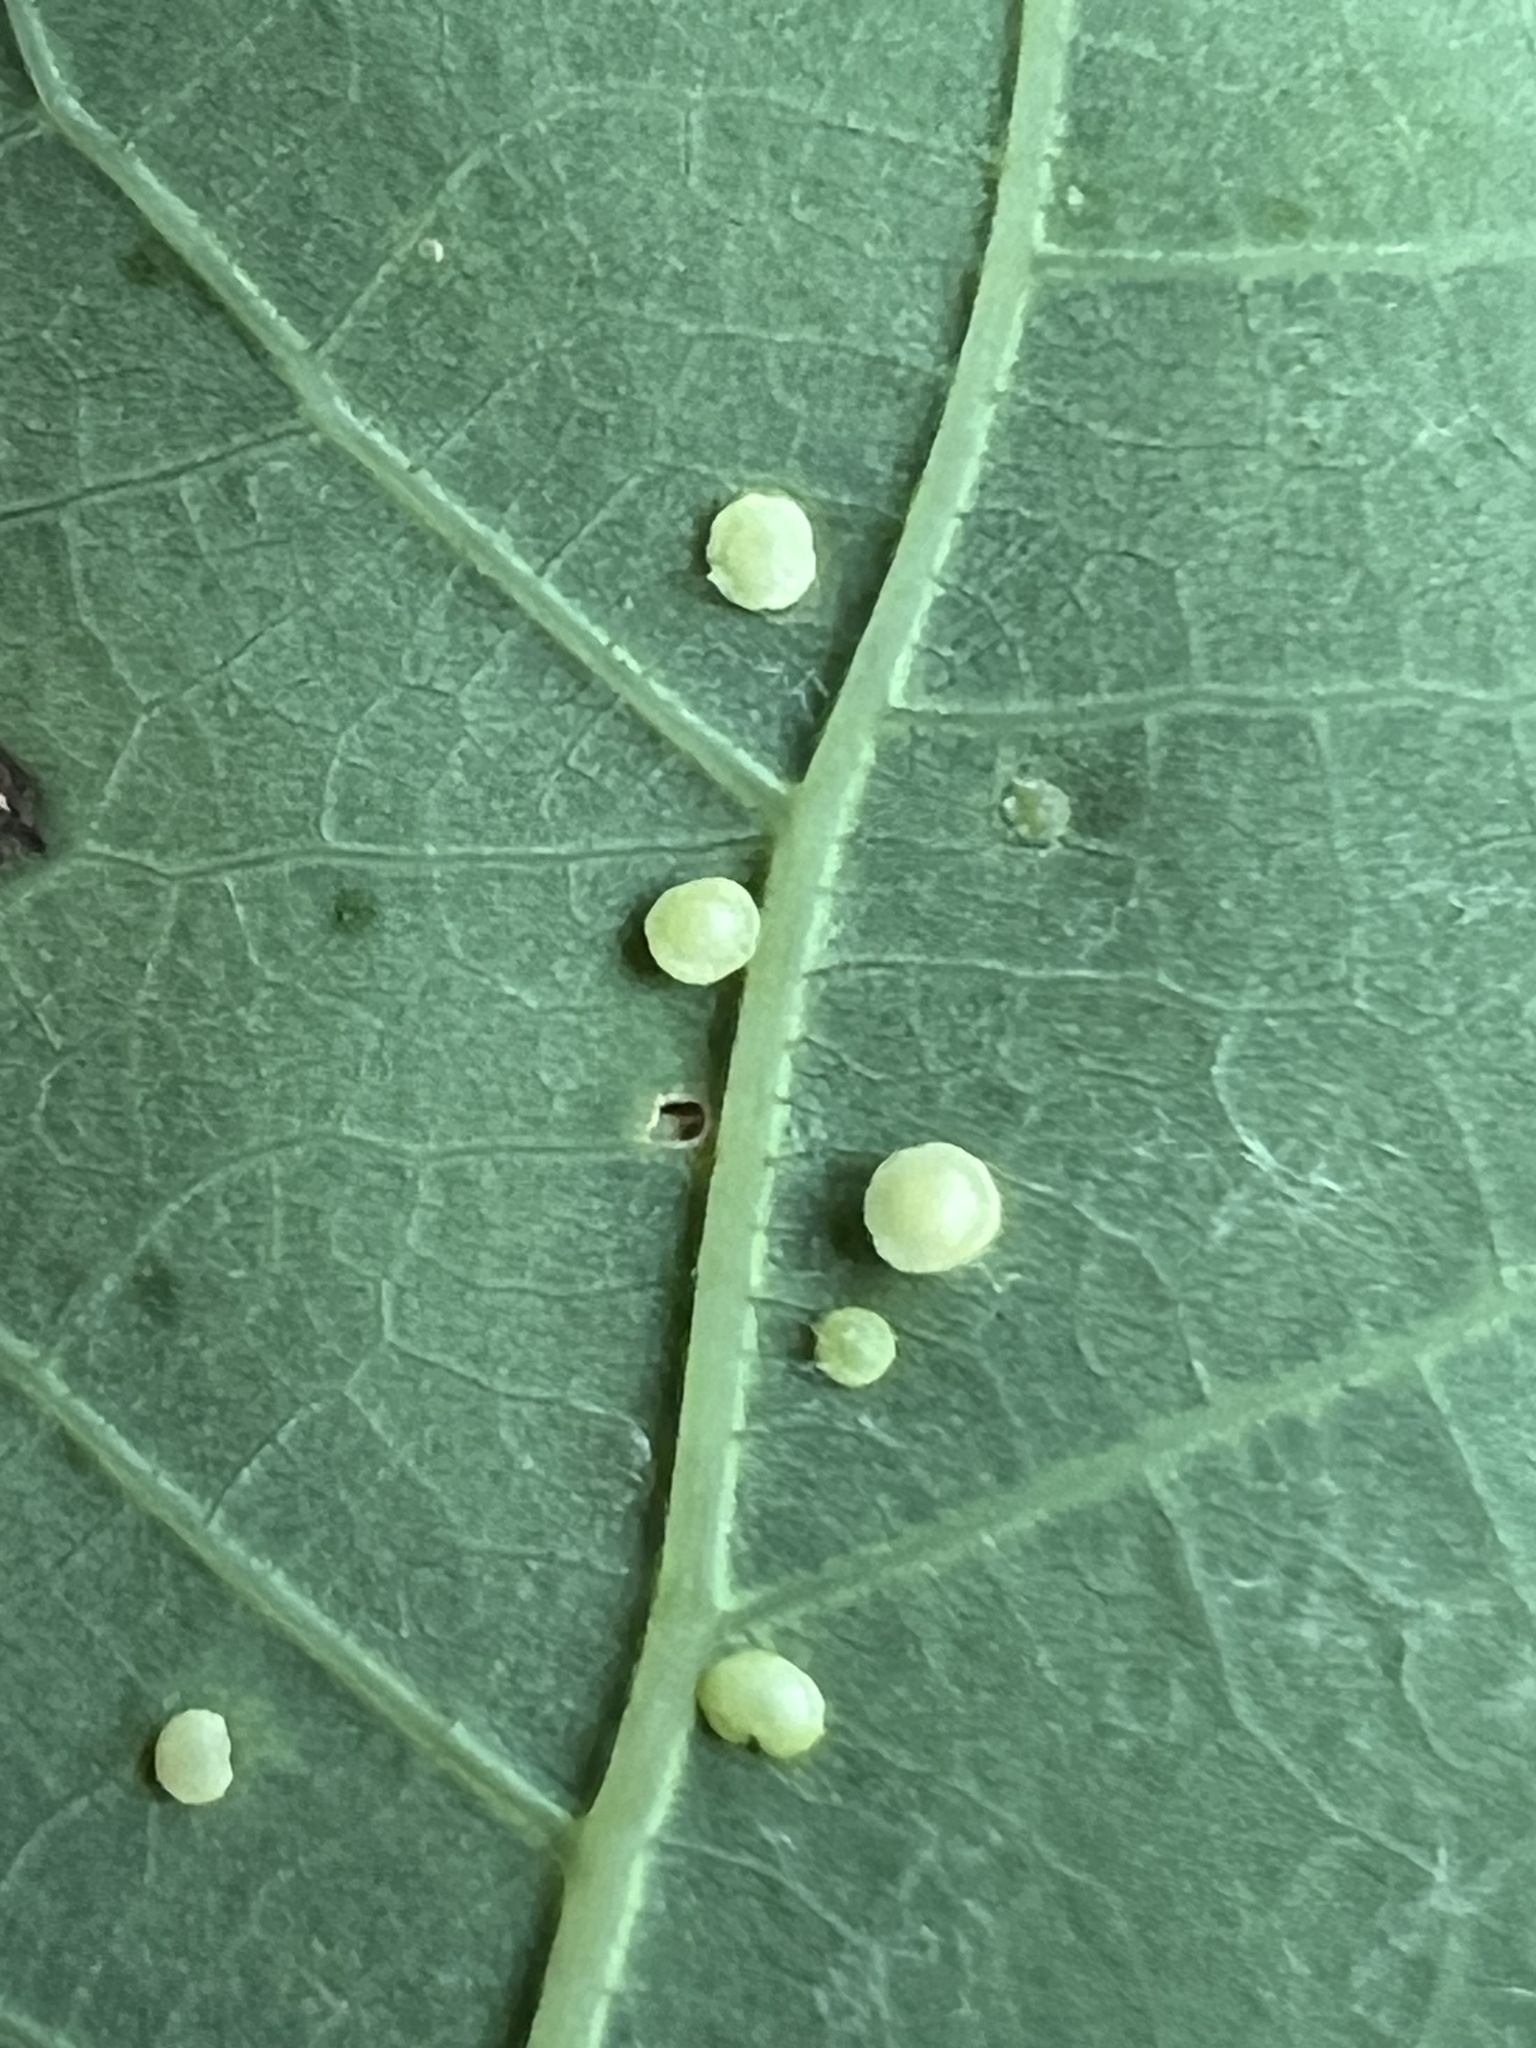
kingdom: Animalia
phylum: Arthropoda
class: Insecta
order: Hymenoptera
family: Cynipidae
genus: Neuroterus
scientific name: Neuroterus
